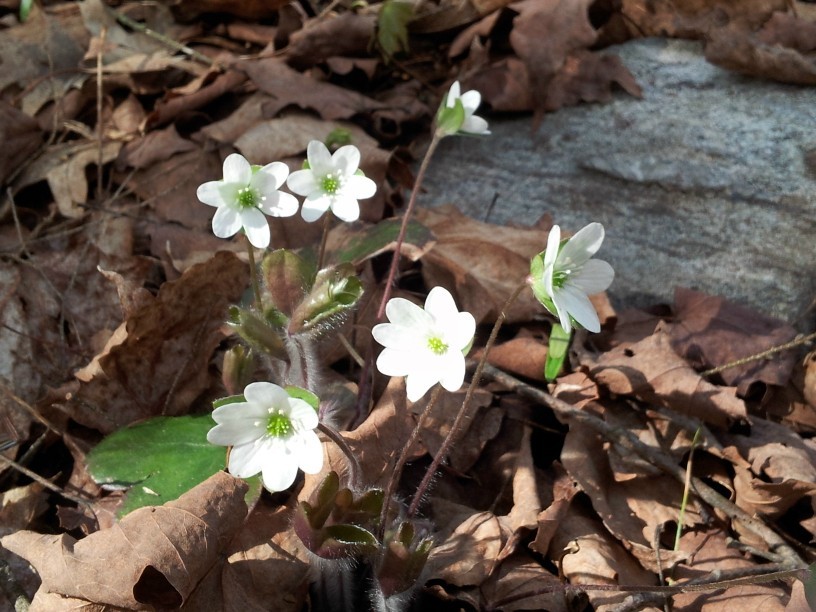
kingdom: Plantae
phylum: Tracheophyta
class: Magnoliopsida
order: Ranunculales
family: Ranunculaceae
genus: Hepatica
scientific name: Hepatica americana
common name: American hepatica
